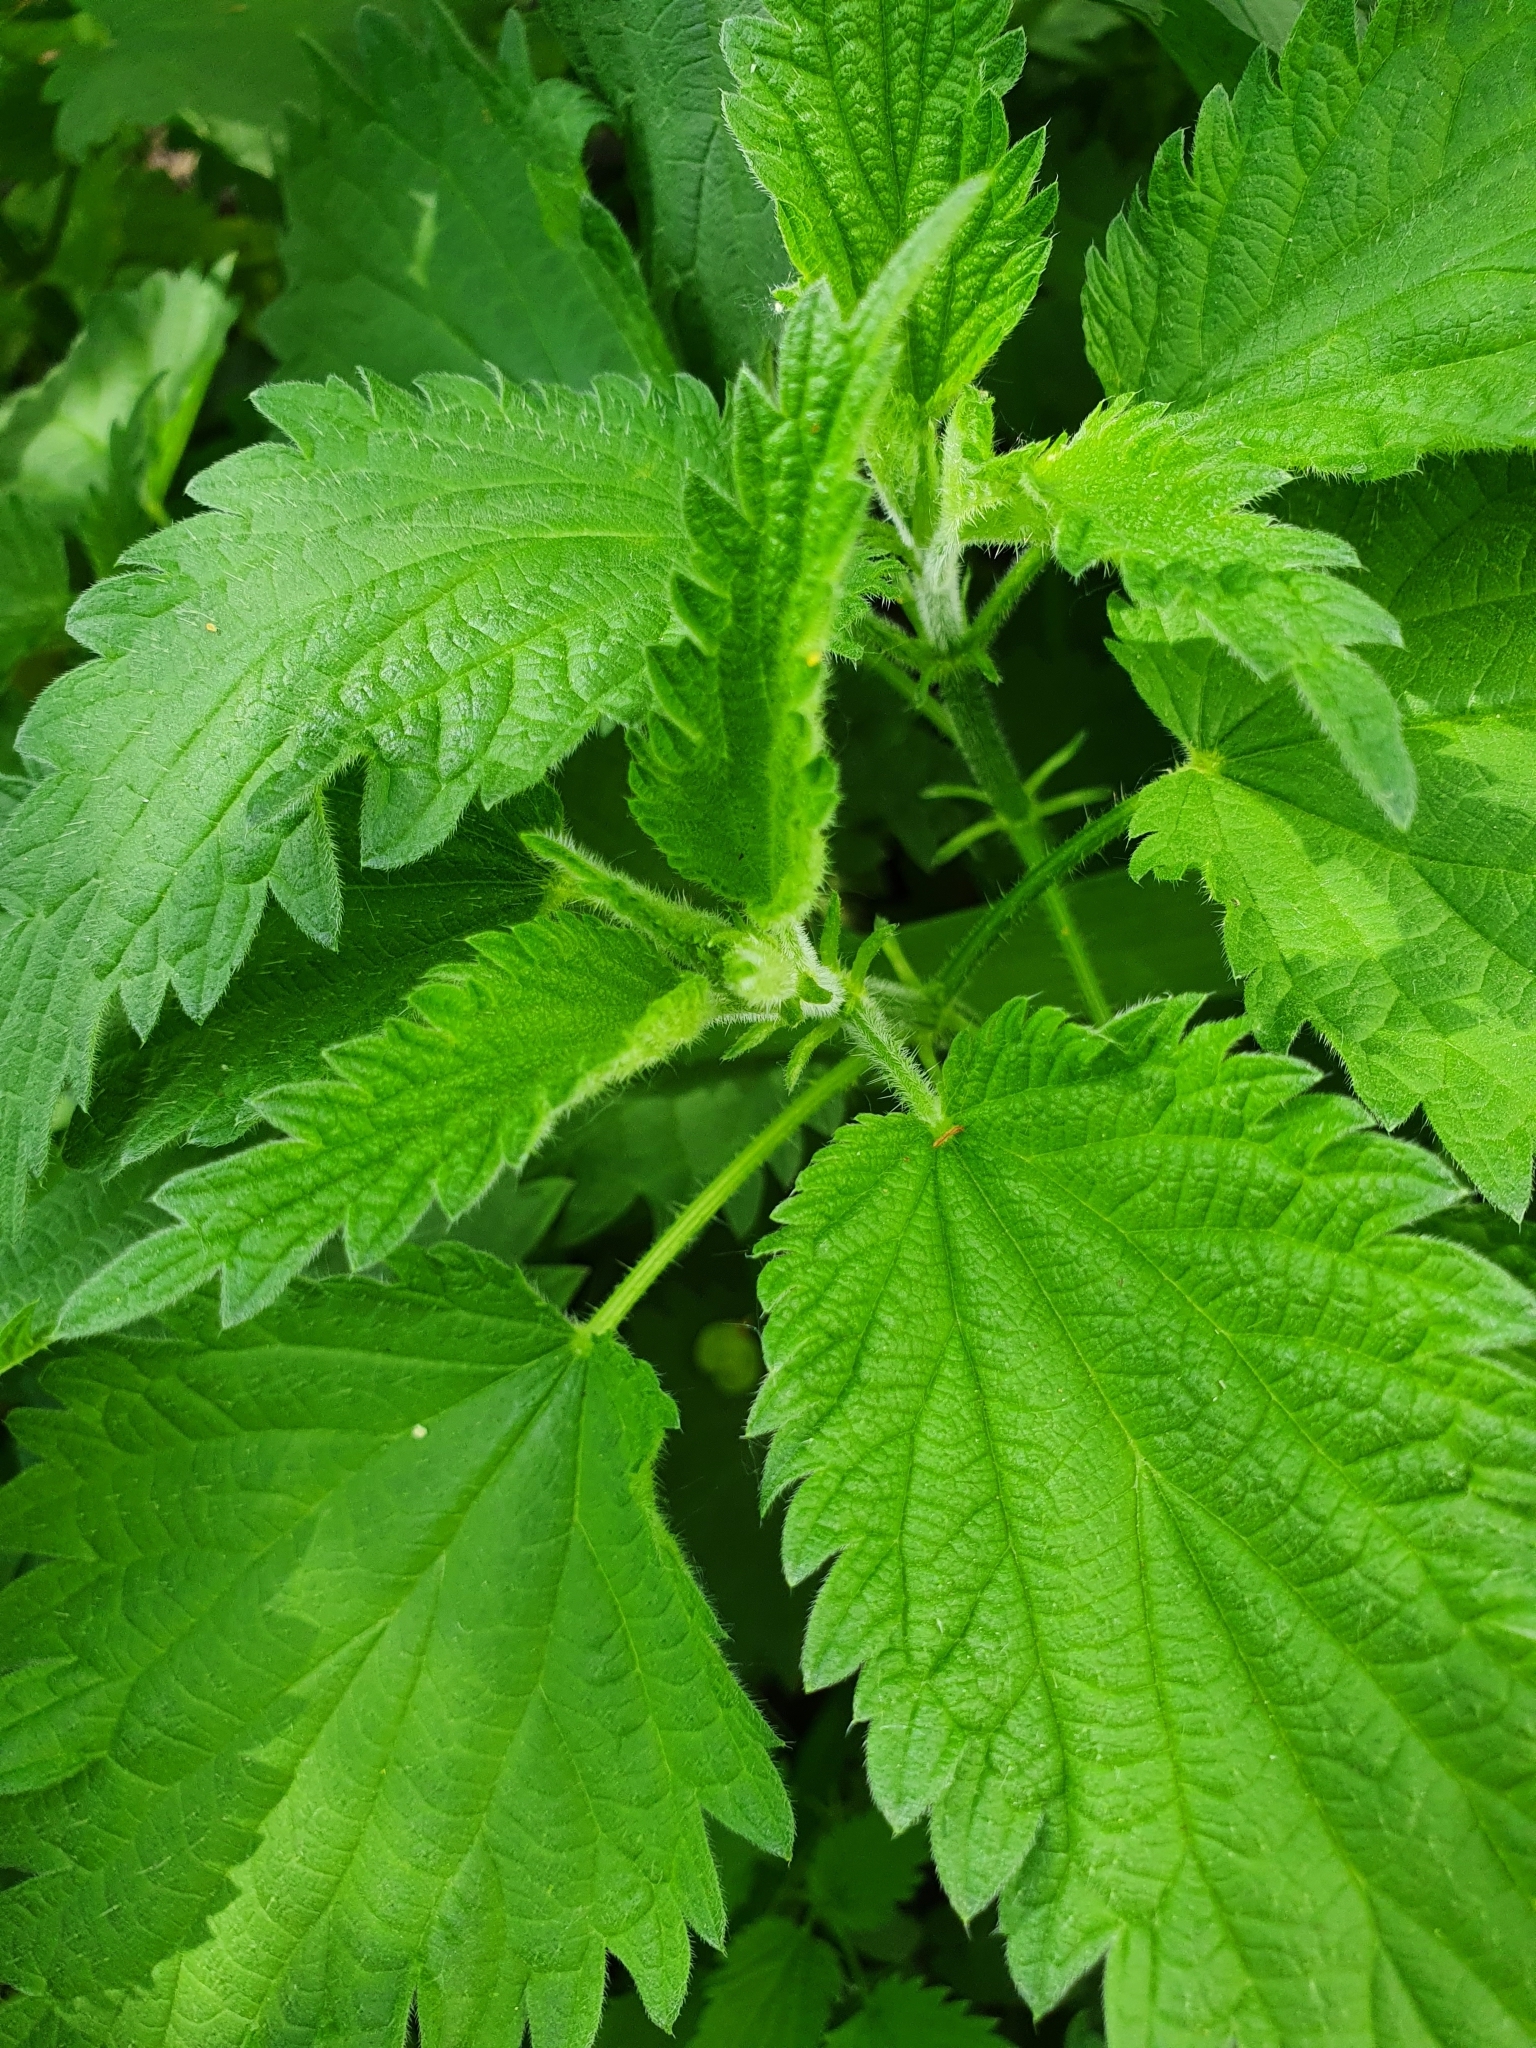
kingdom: Plantae
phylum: Tracheophyta
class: Magnoliopsida
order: Rosales
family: Urticaceae
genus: Urtica
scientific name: Urtica dioica
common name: Common nettle
